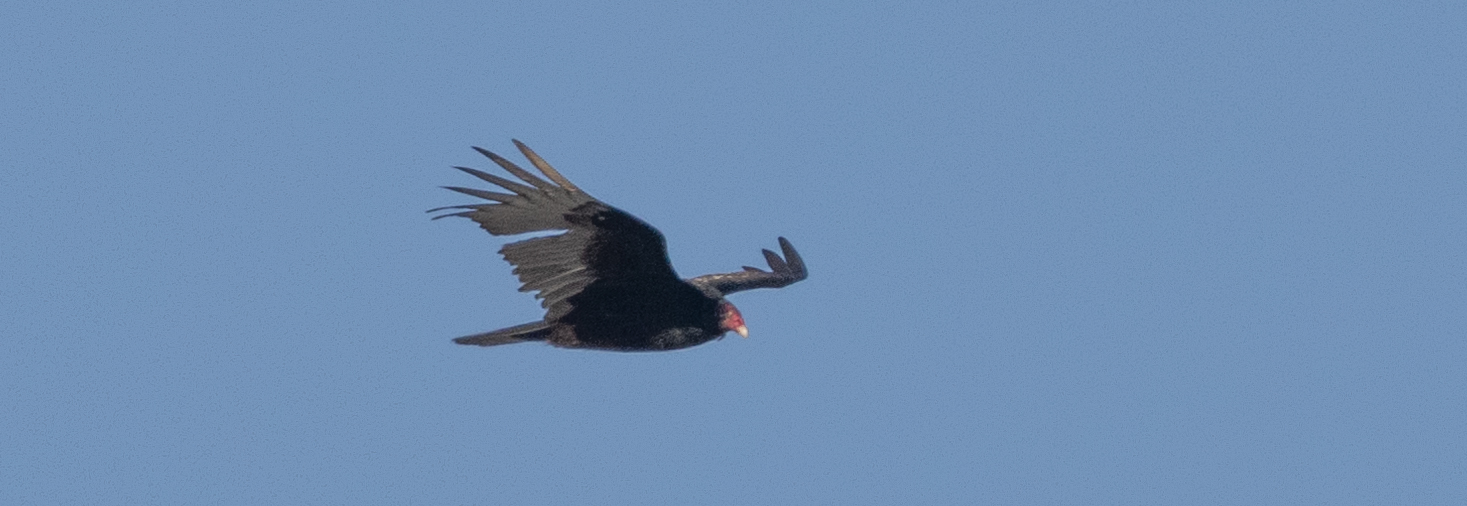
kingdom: Animalia
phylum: Chordata
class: Aves
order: Accipitriformes
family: Cathartidae
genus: Cathartes
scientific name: Cathartes aura
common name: Turkey vulture
